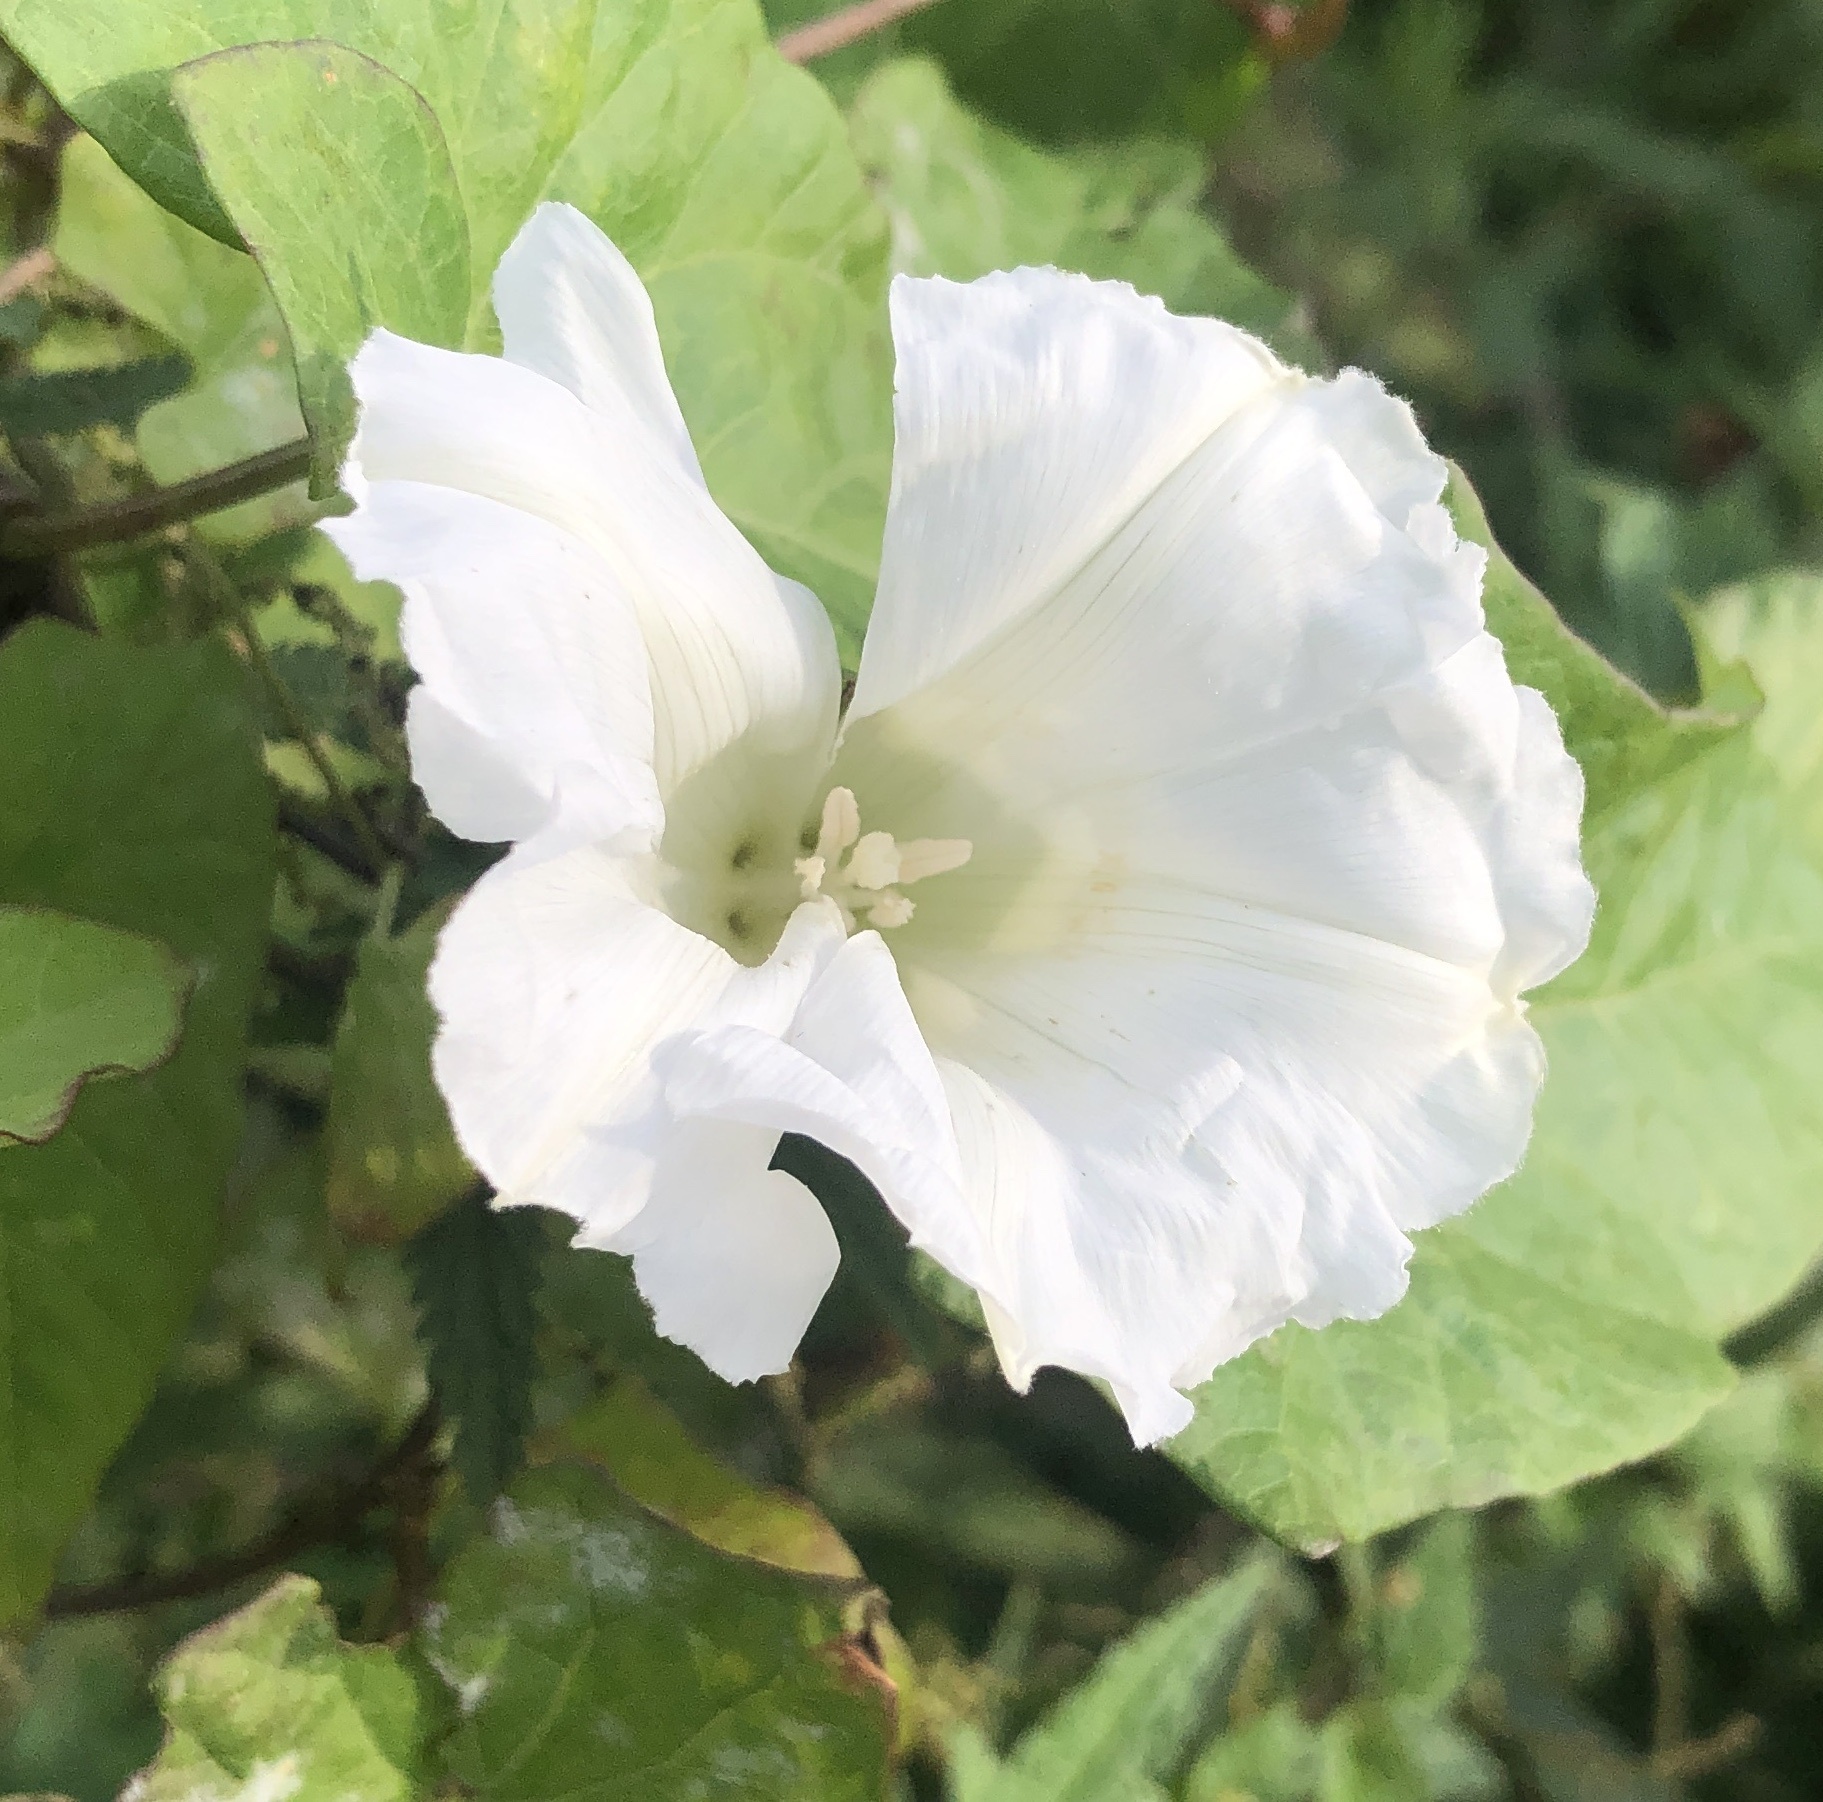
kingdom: Plantae
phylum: Tracheophyta
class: Magnoliopsida
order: Solanales
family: Convolvulaceae
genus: Calystegia
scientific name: Calystegia sepium
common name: Hedge bindweed
